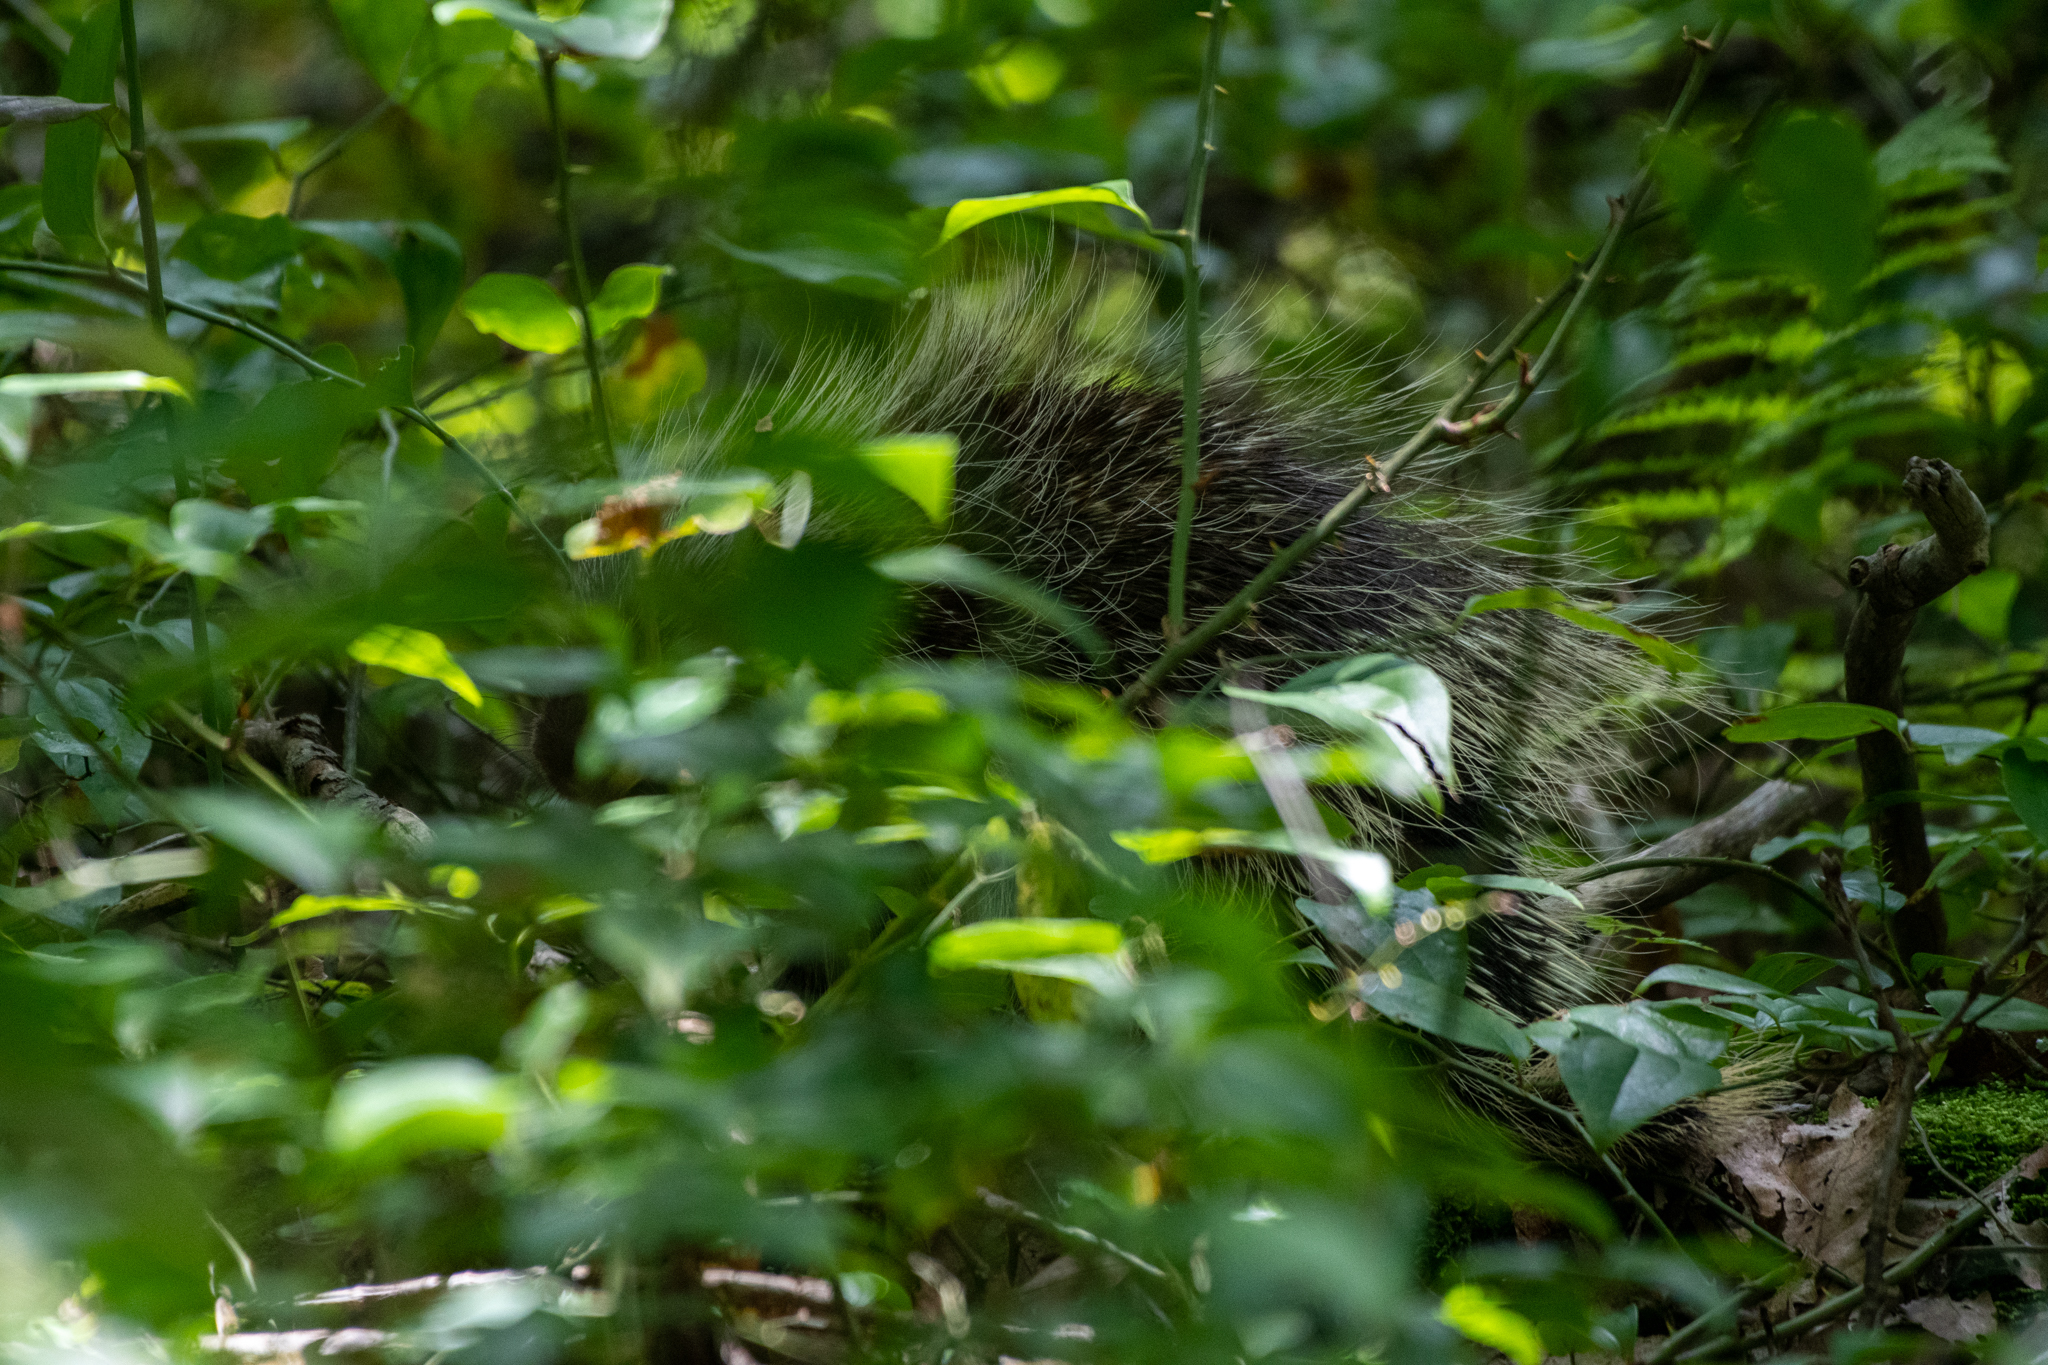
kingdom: Animalia
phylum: Chordata
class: Mammalia
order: Rodentia
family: Erethizontidae
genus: Erethizon
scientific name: Erethizon dorsatus
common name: North american porcupine
